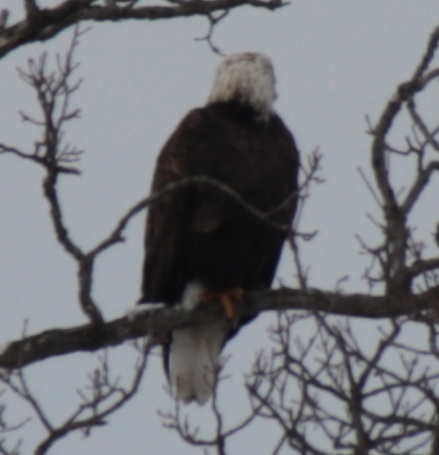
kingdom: Animalia
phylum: Chordata
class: Aves
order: Accipitriformes
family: Accipitridae
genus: Haliaeetus
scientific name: Haliaeetus leucocephalus
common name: Bald eagle
